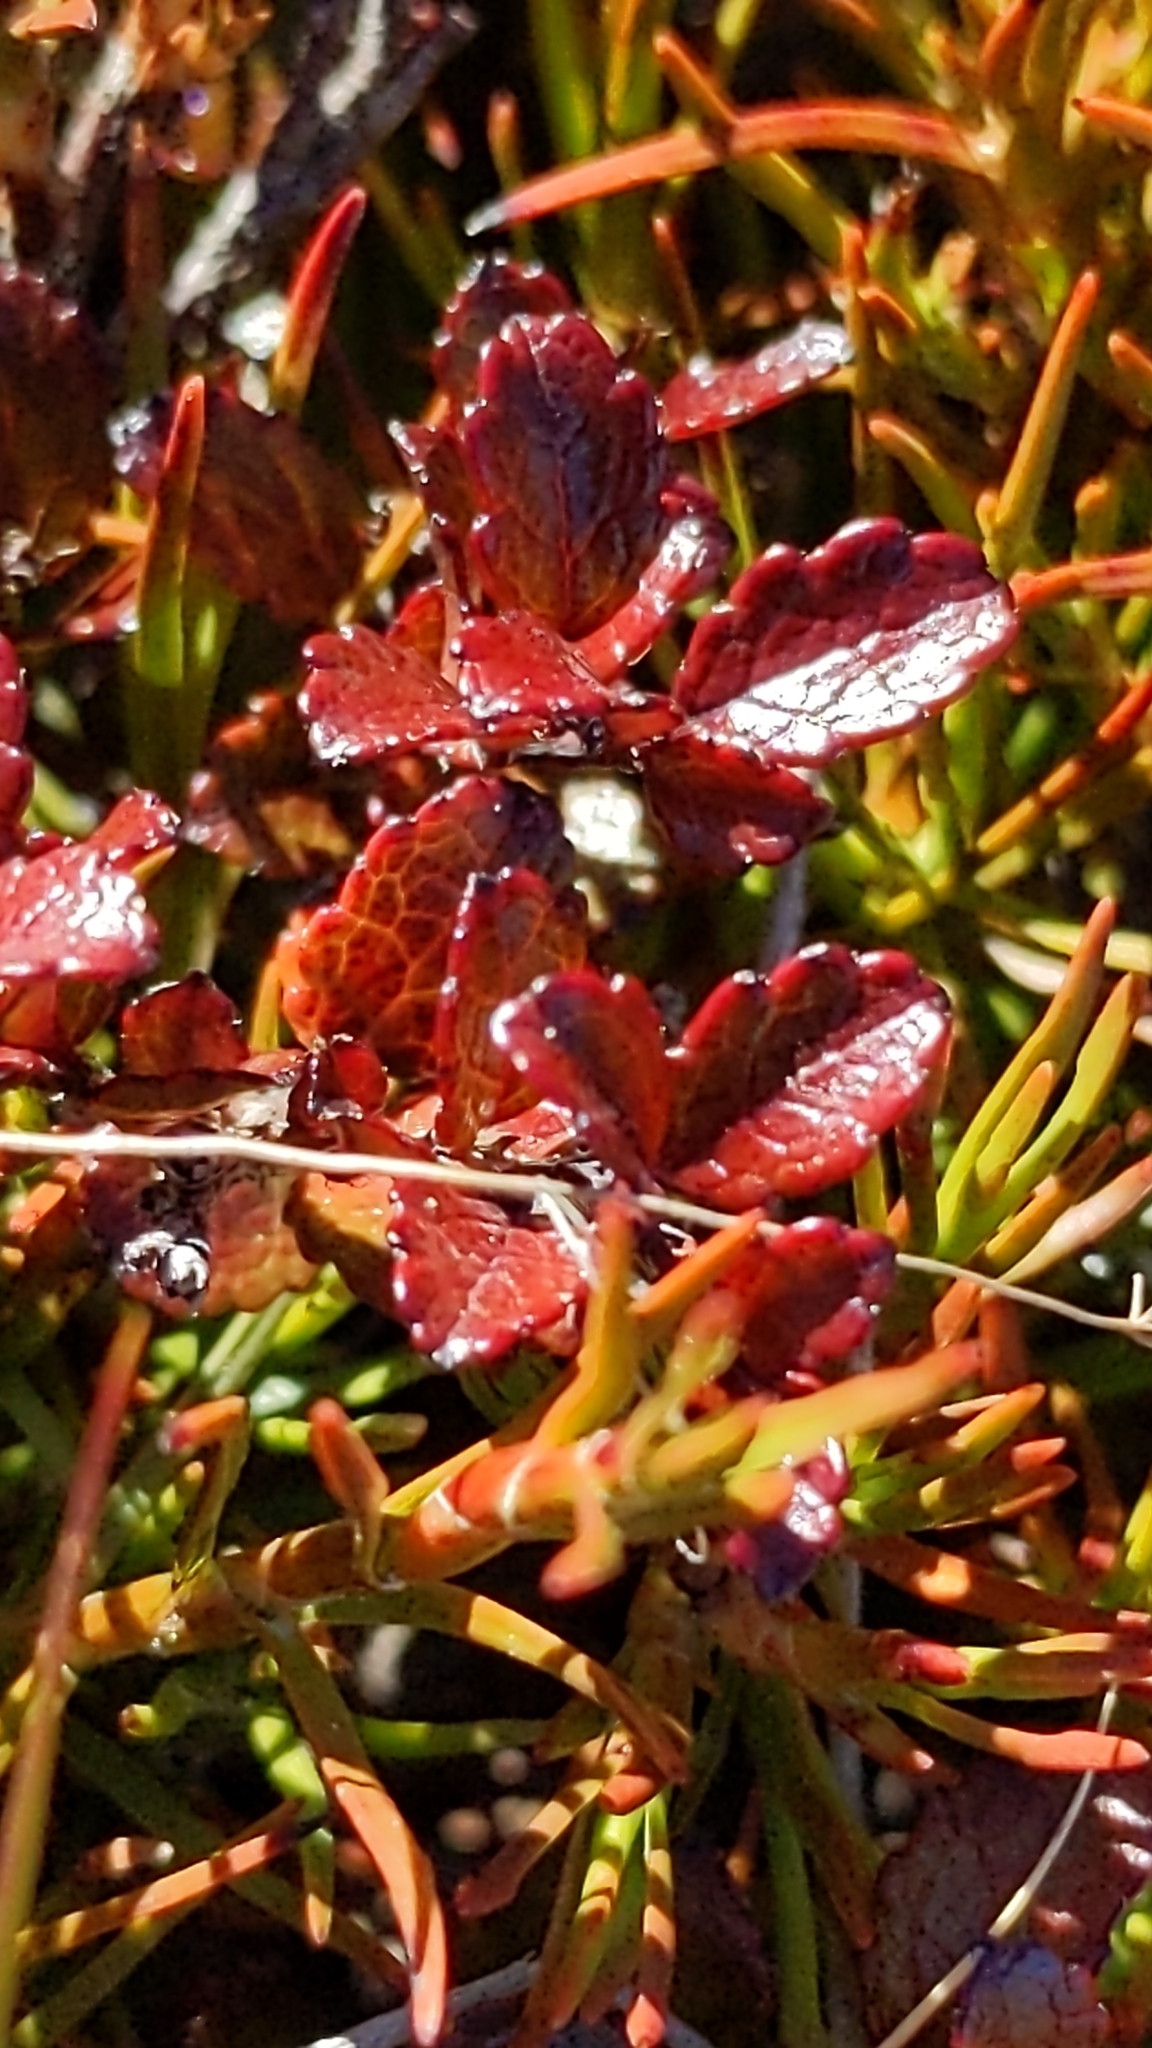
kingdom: Plantae
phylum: Tracheophyta
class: Magnoliopsida
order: Ericales
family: Ericaceae
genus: Gaultheria
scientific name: Gaultheria depressa
